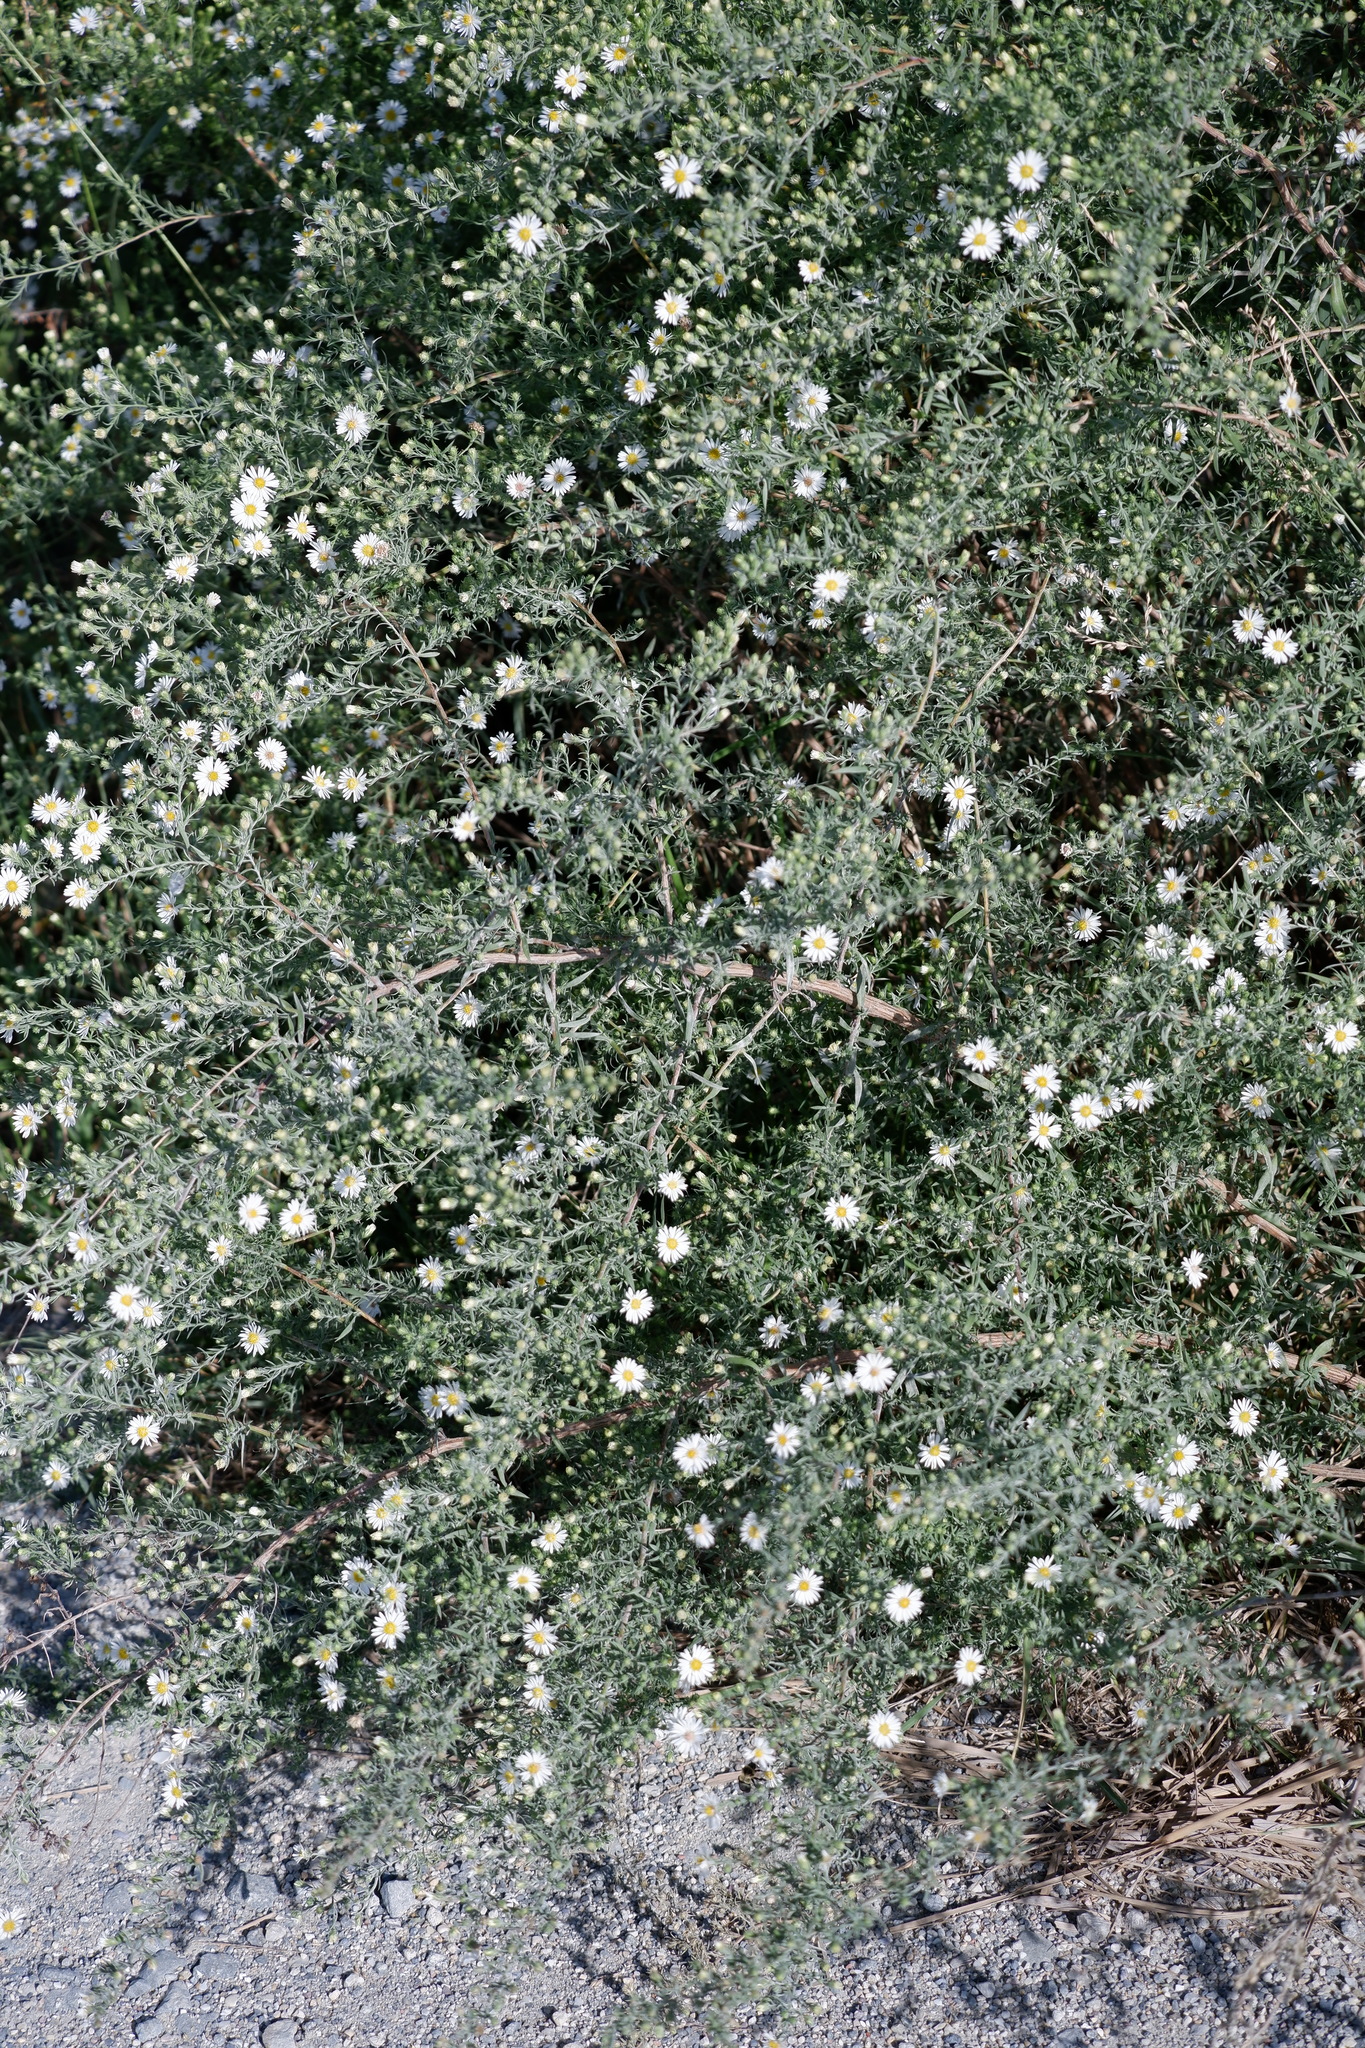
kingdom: Plantae
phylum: Tracheophyta
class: Magnoliopsida
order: Asterales
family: Asteraceae
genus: Symphyotrichum
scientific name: Symphyotrichum pilosum
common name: Awl aster
